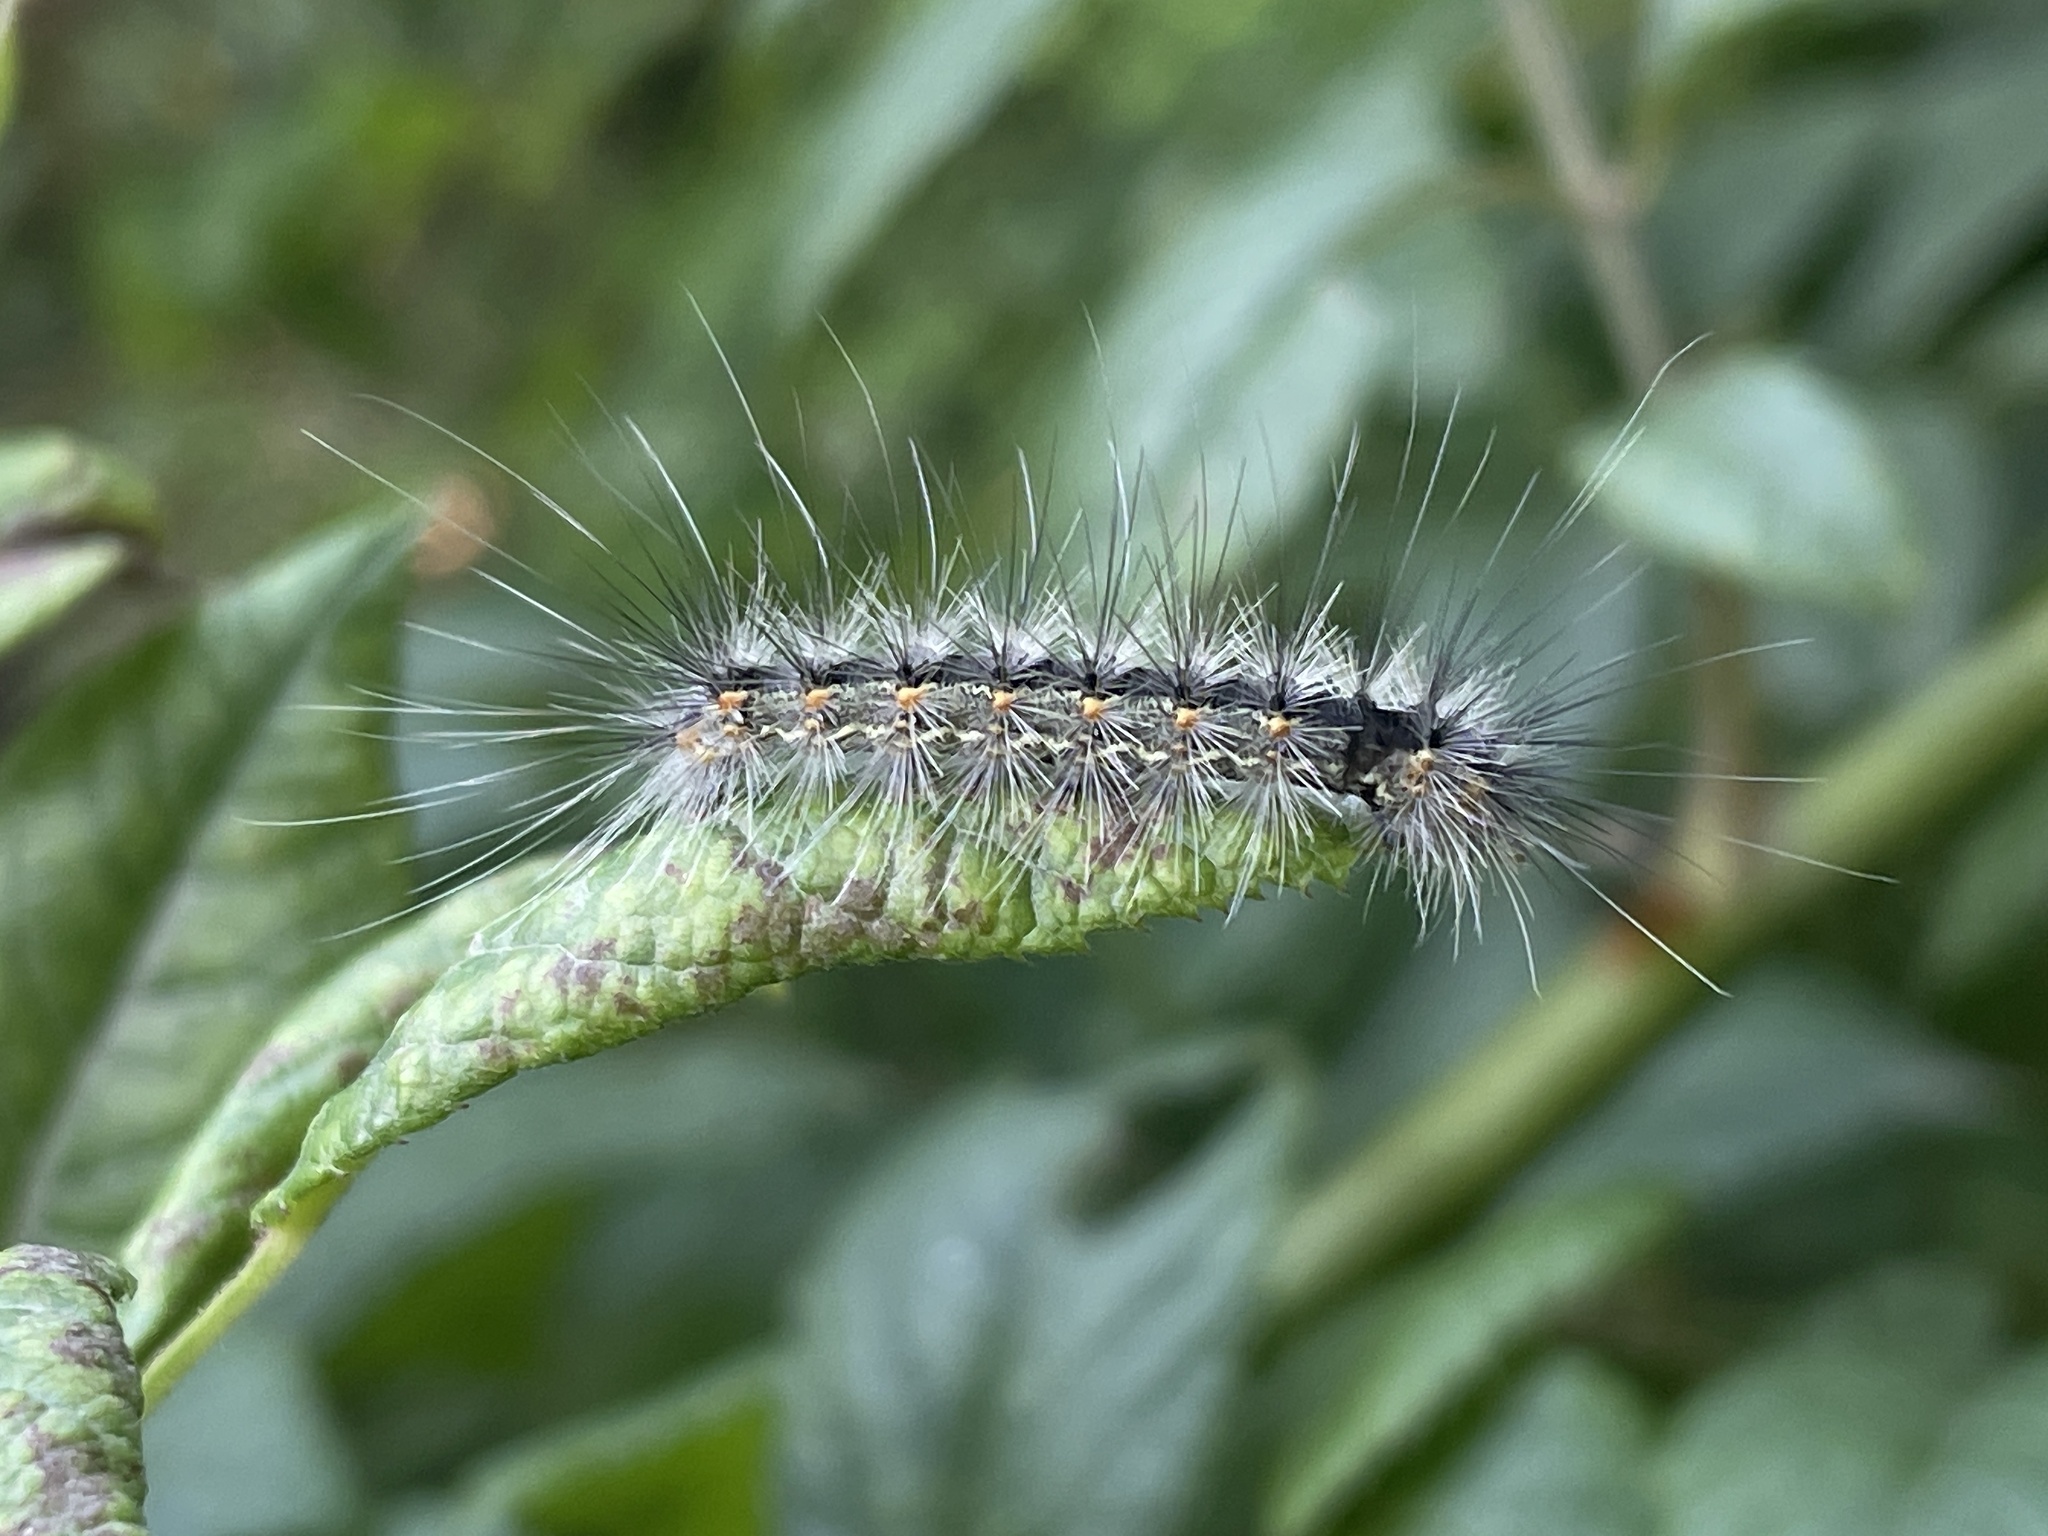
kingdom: Animalia
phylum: Arthropoda
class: Insecta
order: Lepidoptera
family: Erebidae
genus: Hyphantria
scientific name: Hyphantria cunea
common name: American white moth
